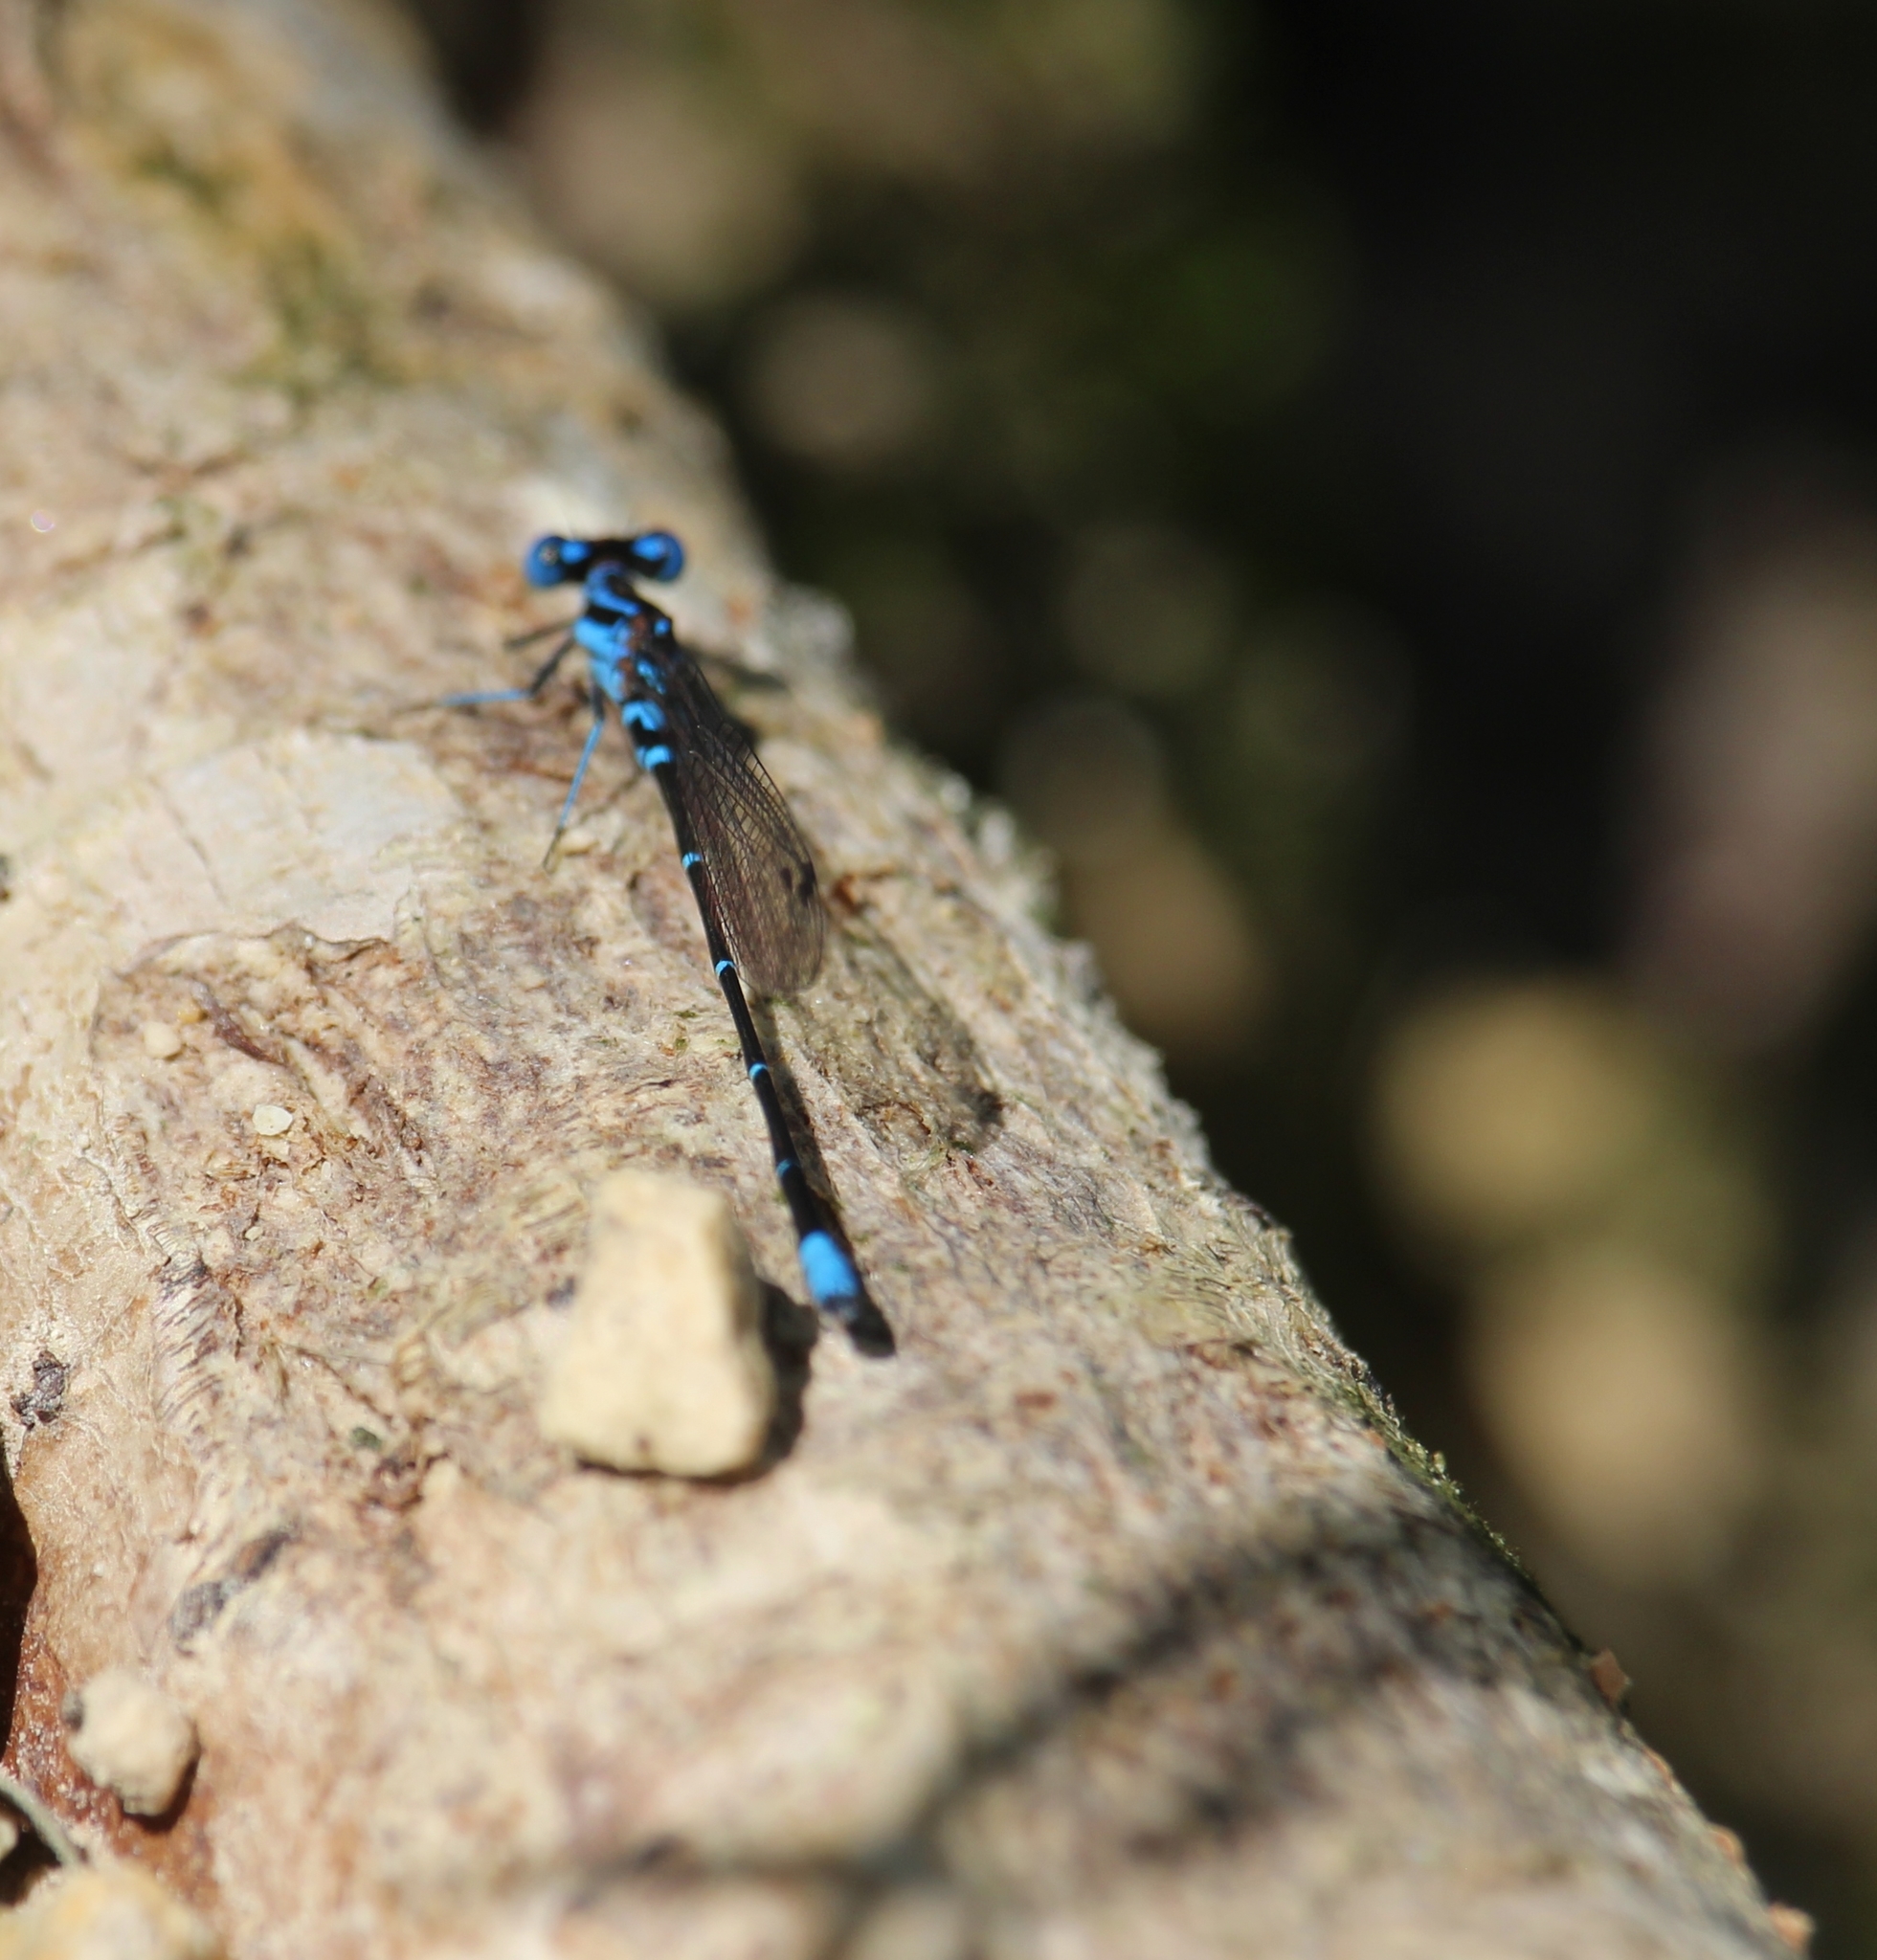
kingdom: Animalia
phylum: Arthropoda
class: Insecta
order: Odonata
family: Coenagrionidae
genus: Argia
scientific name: Argia gaumeri
